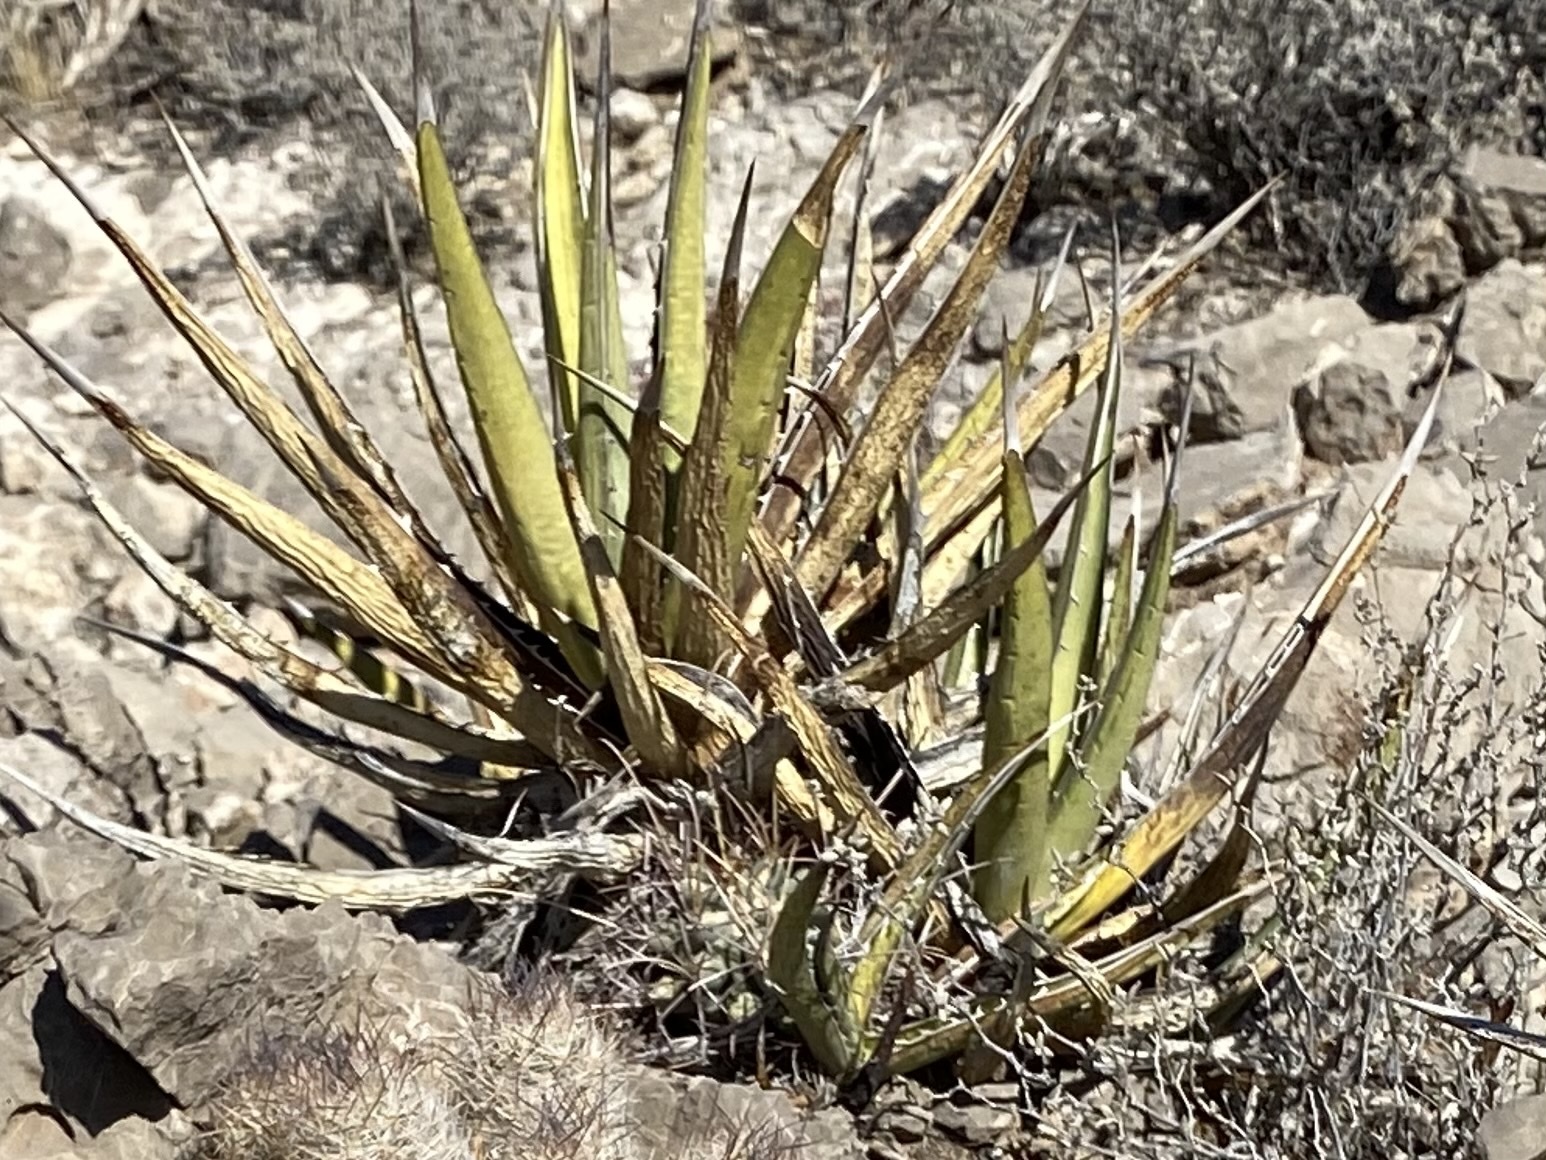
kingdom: Plantae
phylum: Tracheophyta
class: Liliopsida
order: Asparagales
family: Asparagaceae
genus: Agave
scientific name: Agave lechuguilla
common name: Lecheguilla agave
